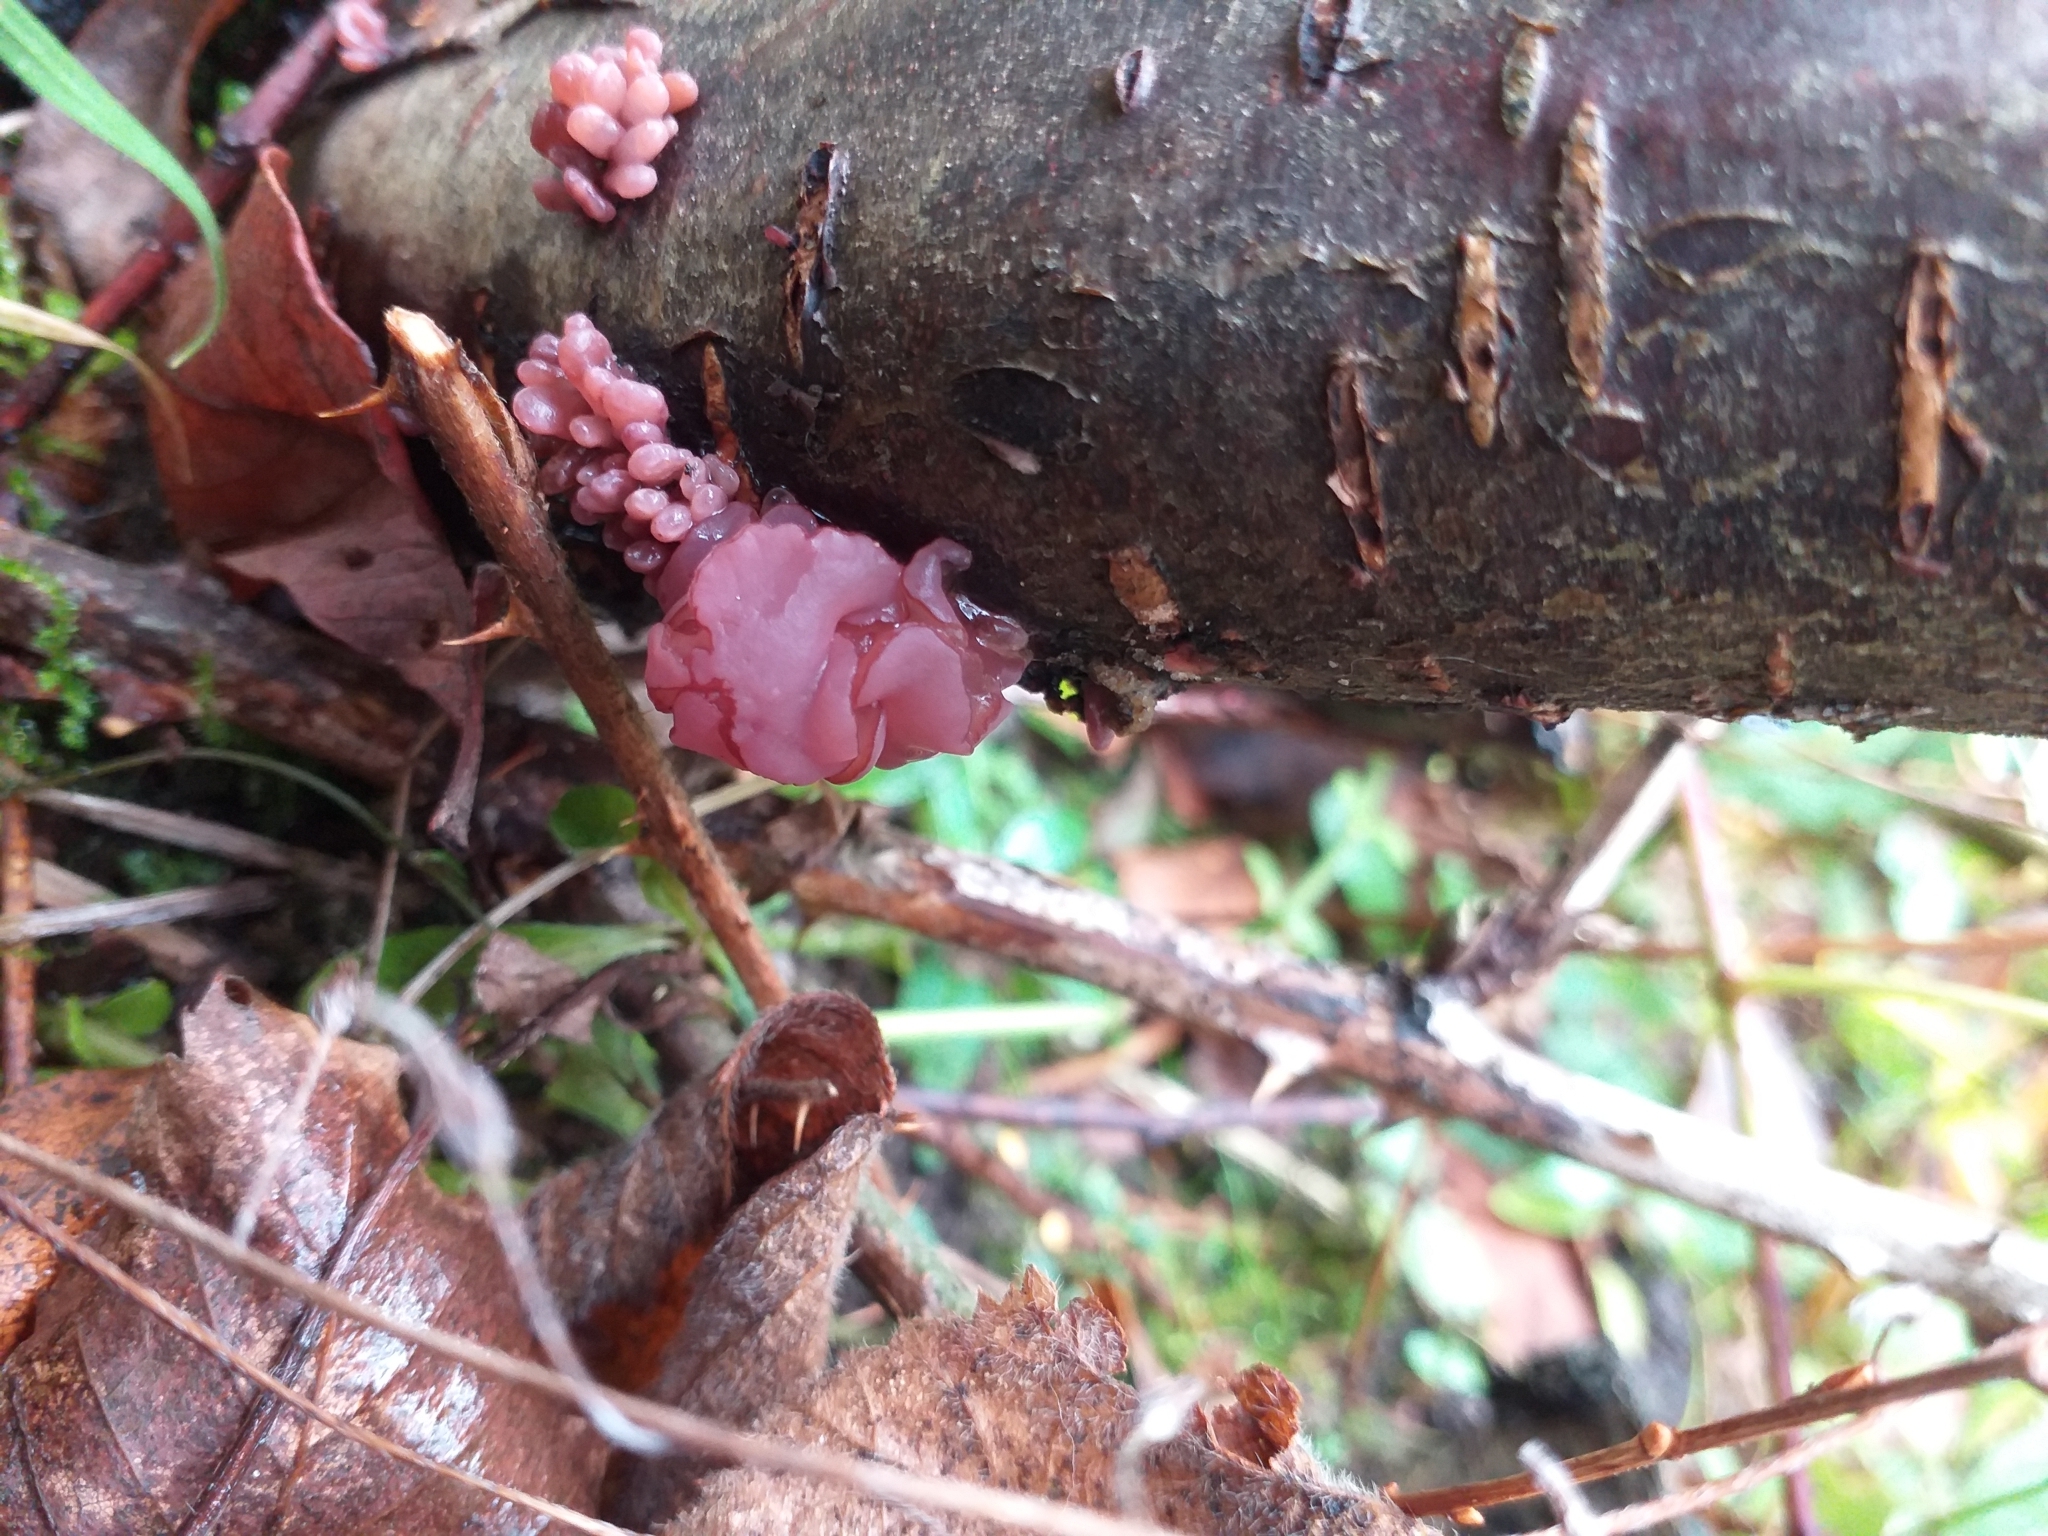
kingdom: Fungi
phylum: Ascomycota
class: Leotiomycetes
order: Helotiales
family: Gelatinodiscaceae
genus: Ascocoryne
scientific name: Ascocoryne sarcoides
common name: Purple jellydisc
